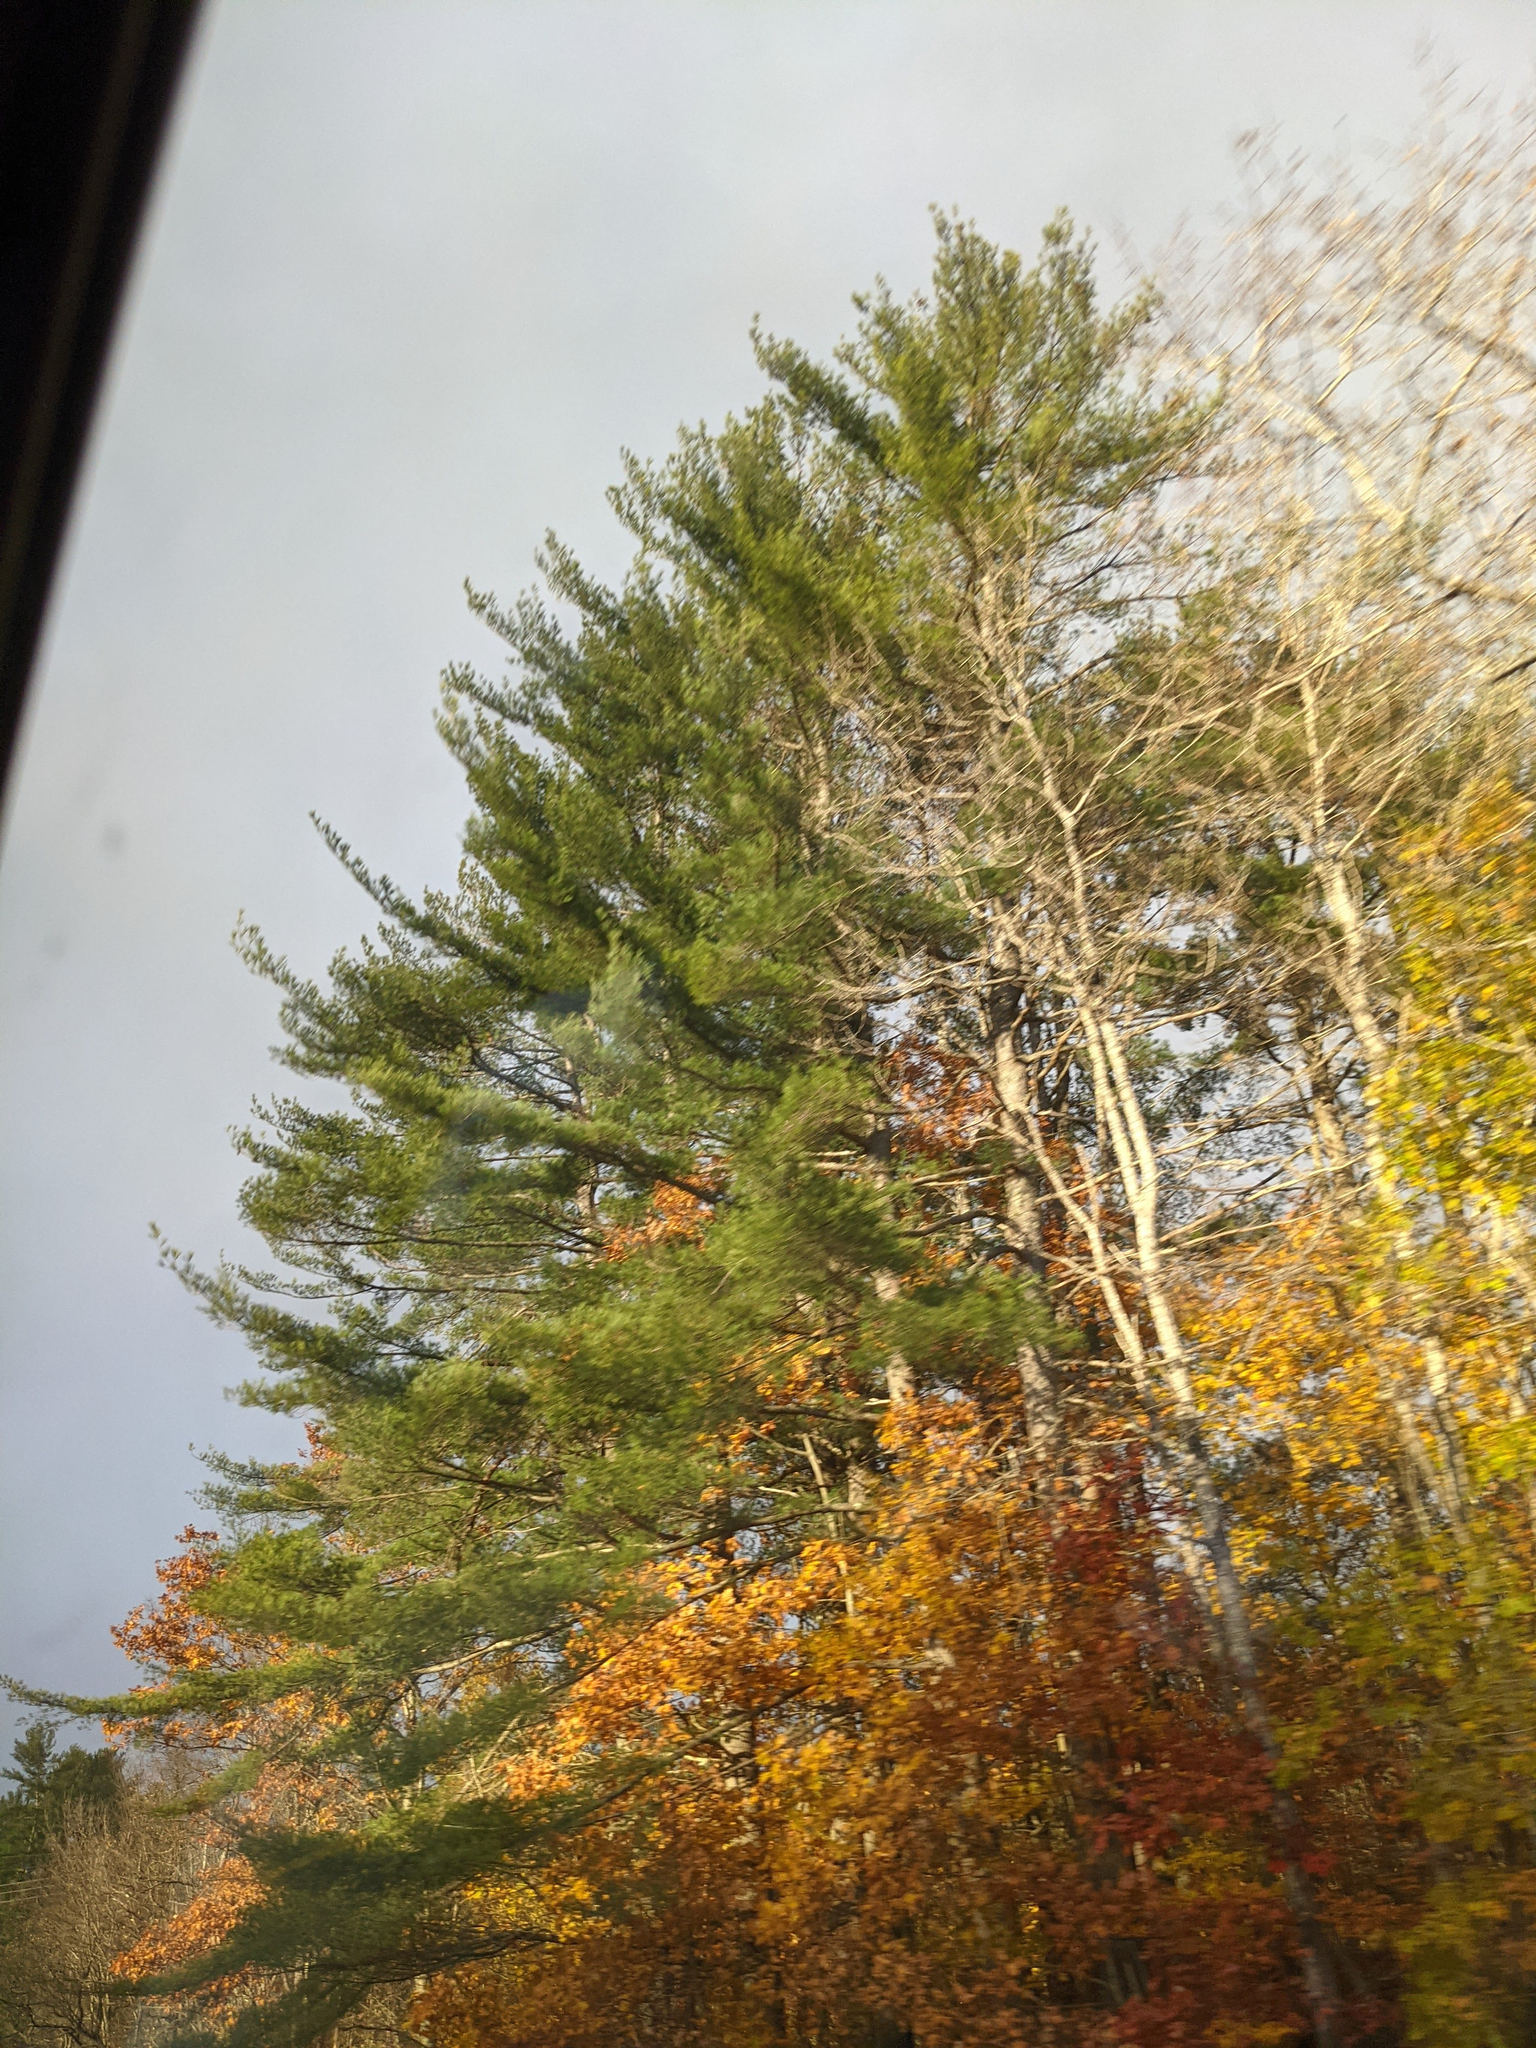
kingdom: Plantae
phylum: Tracheophyta
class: Pinopsida
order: Pinales
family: Pinaceae
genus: Pinus
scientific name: Pinus strobus
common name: Weymouth pine
